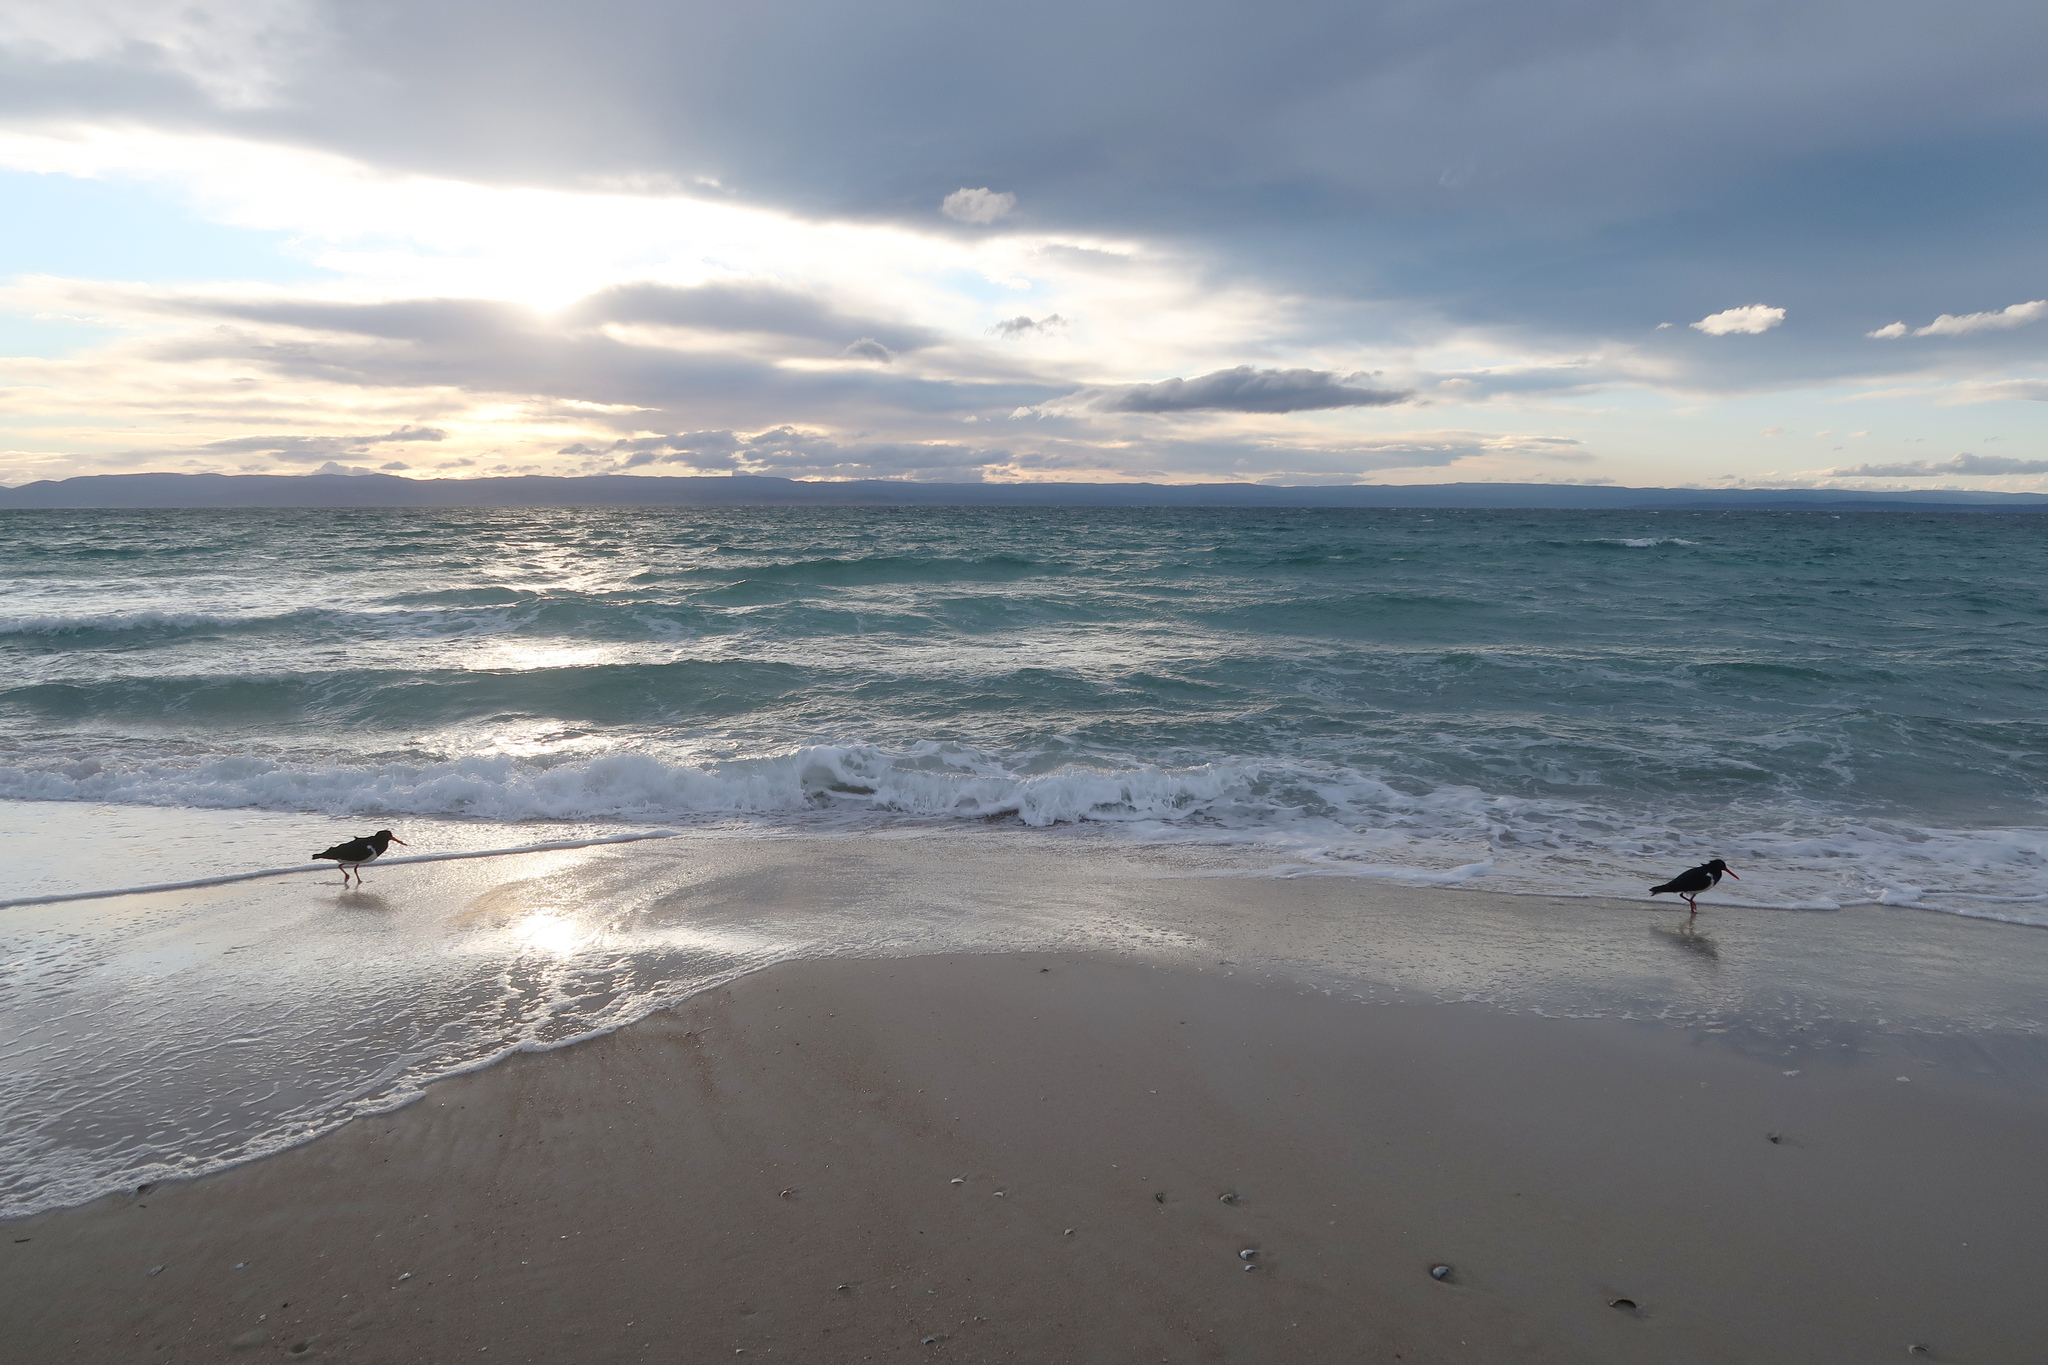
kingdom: Animalia
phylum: Chordata
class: Aves
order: Charadriiformes
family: Haematopodidae
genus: Haematopus
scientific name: Haematopus longirostris
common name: Pied oystercatcher
